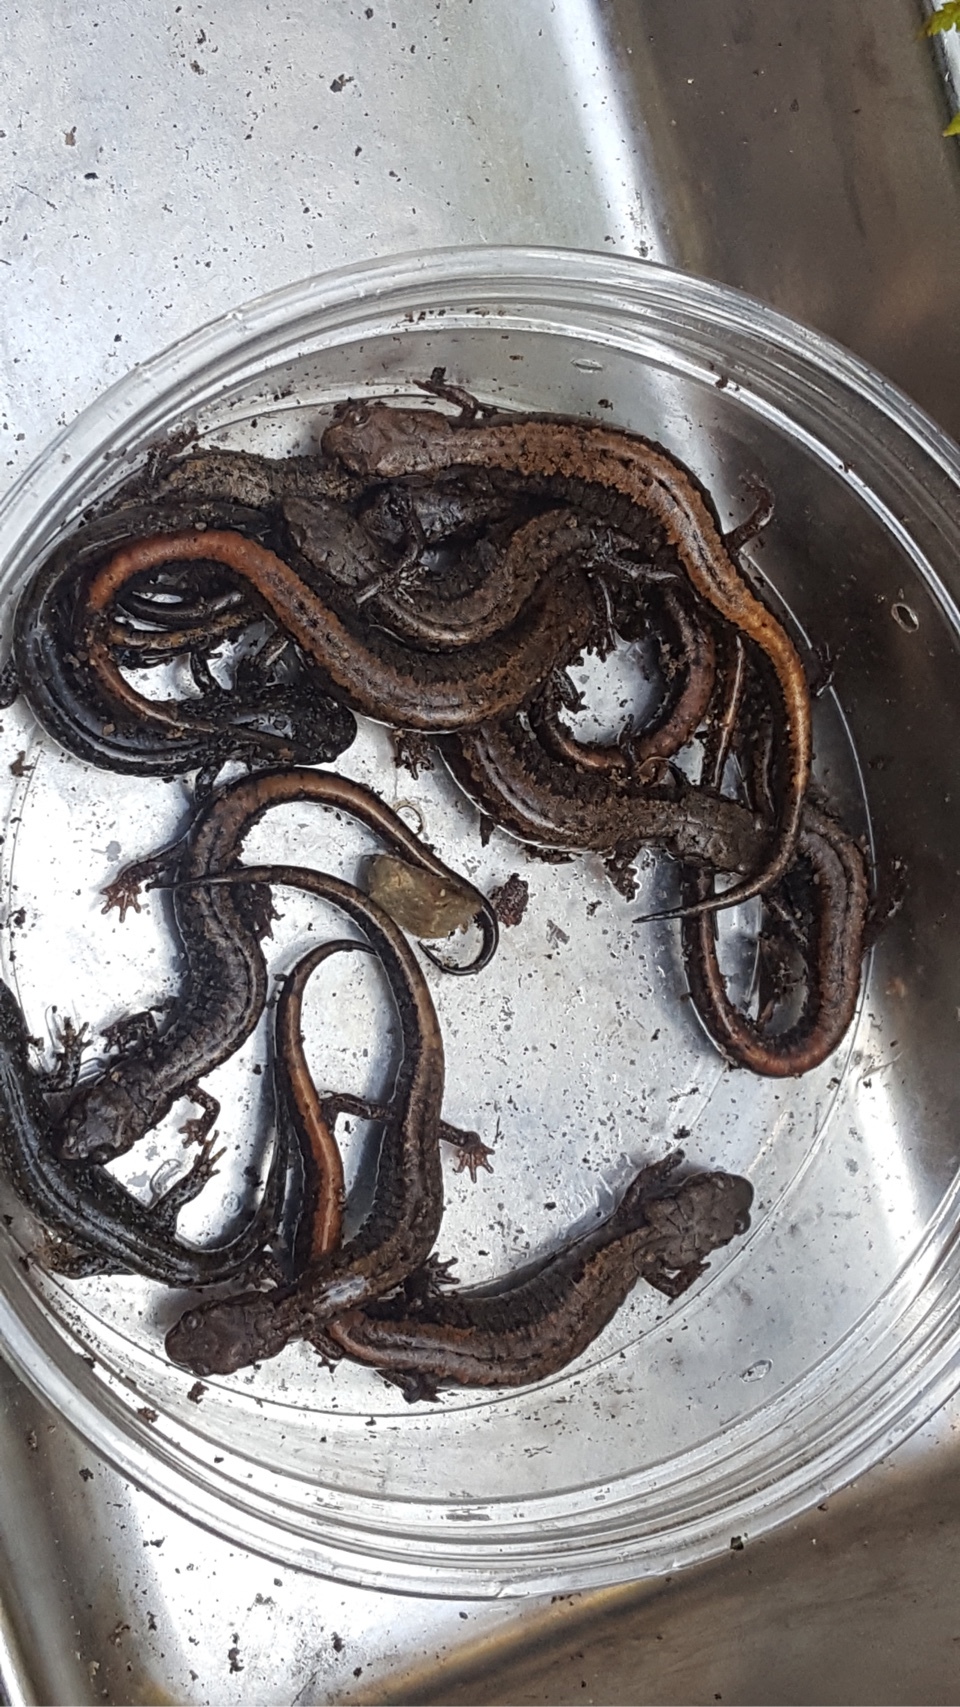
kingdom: Animalia
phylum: Chordata
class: Amphibia
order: Caudata
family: Plethodontidae
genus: Karsenia
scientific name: Karsenia koreana
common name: Korean crevice salamander
